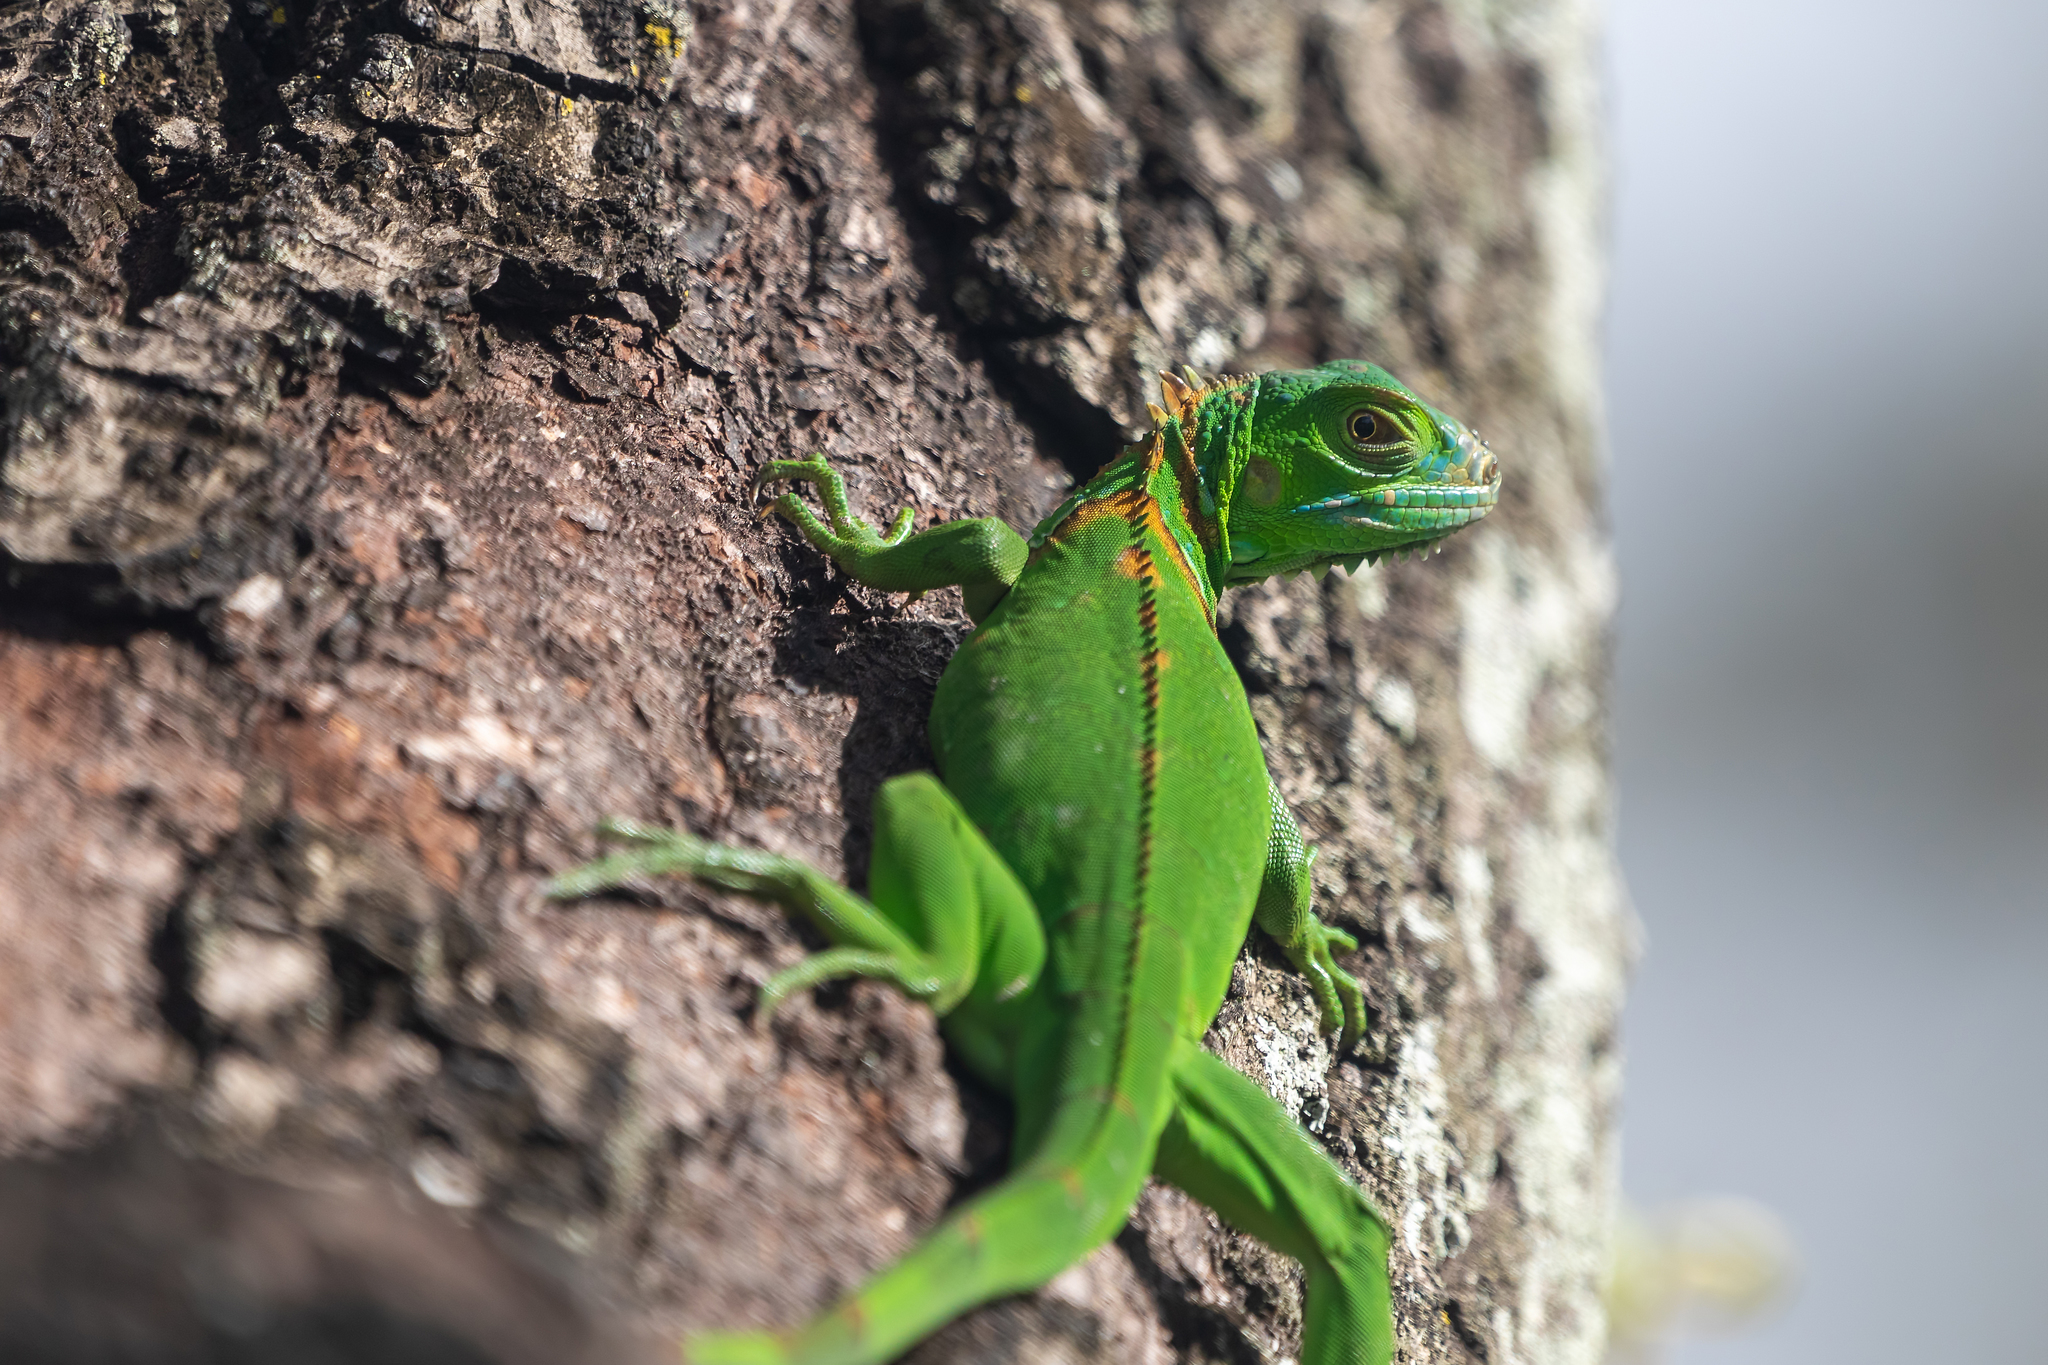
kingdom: Animalia
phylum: Chordata
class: Squamata
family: Iguanidae
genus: Iguana
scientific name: Iguana iguana
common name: Green iguana
